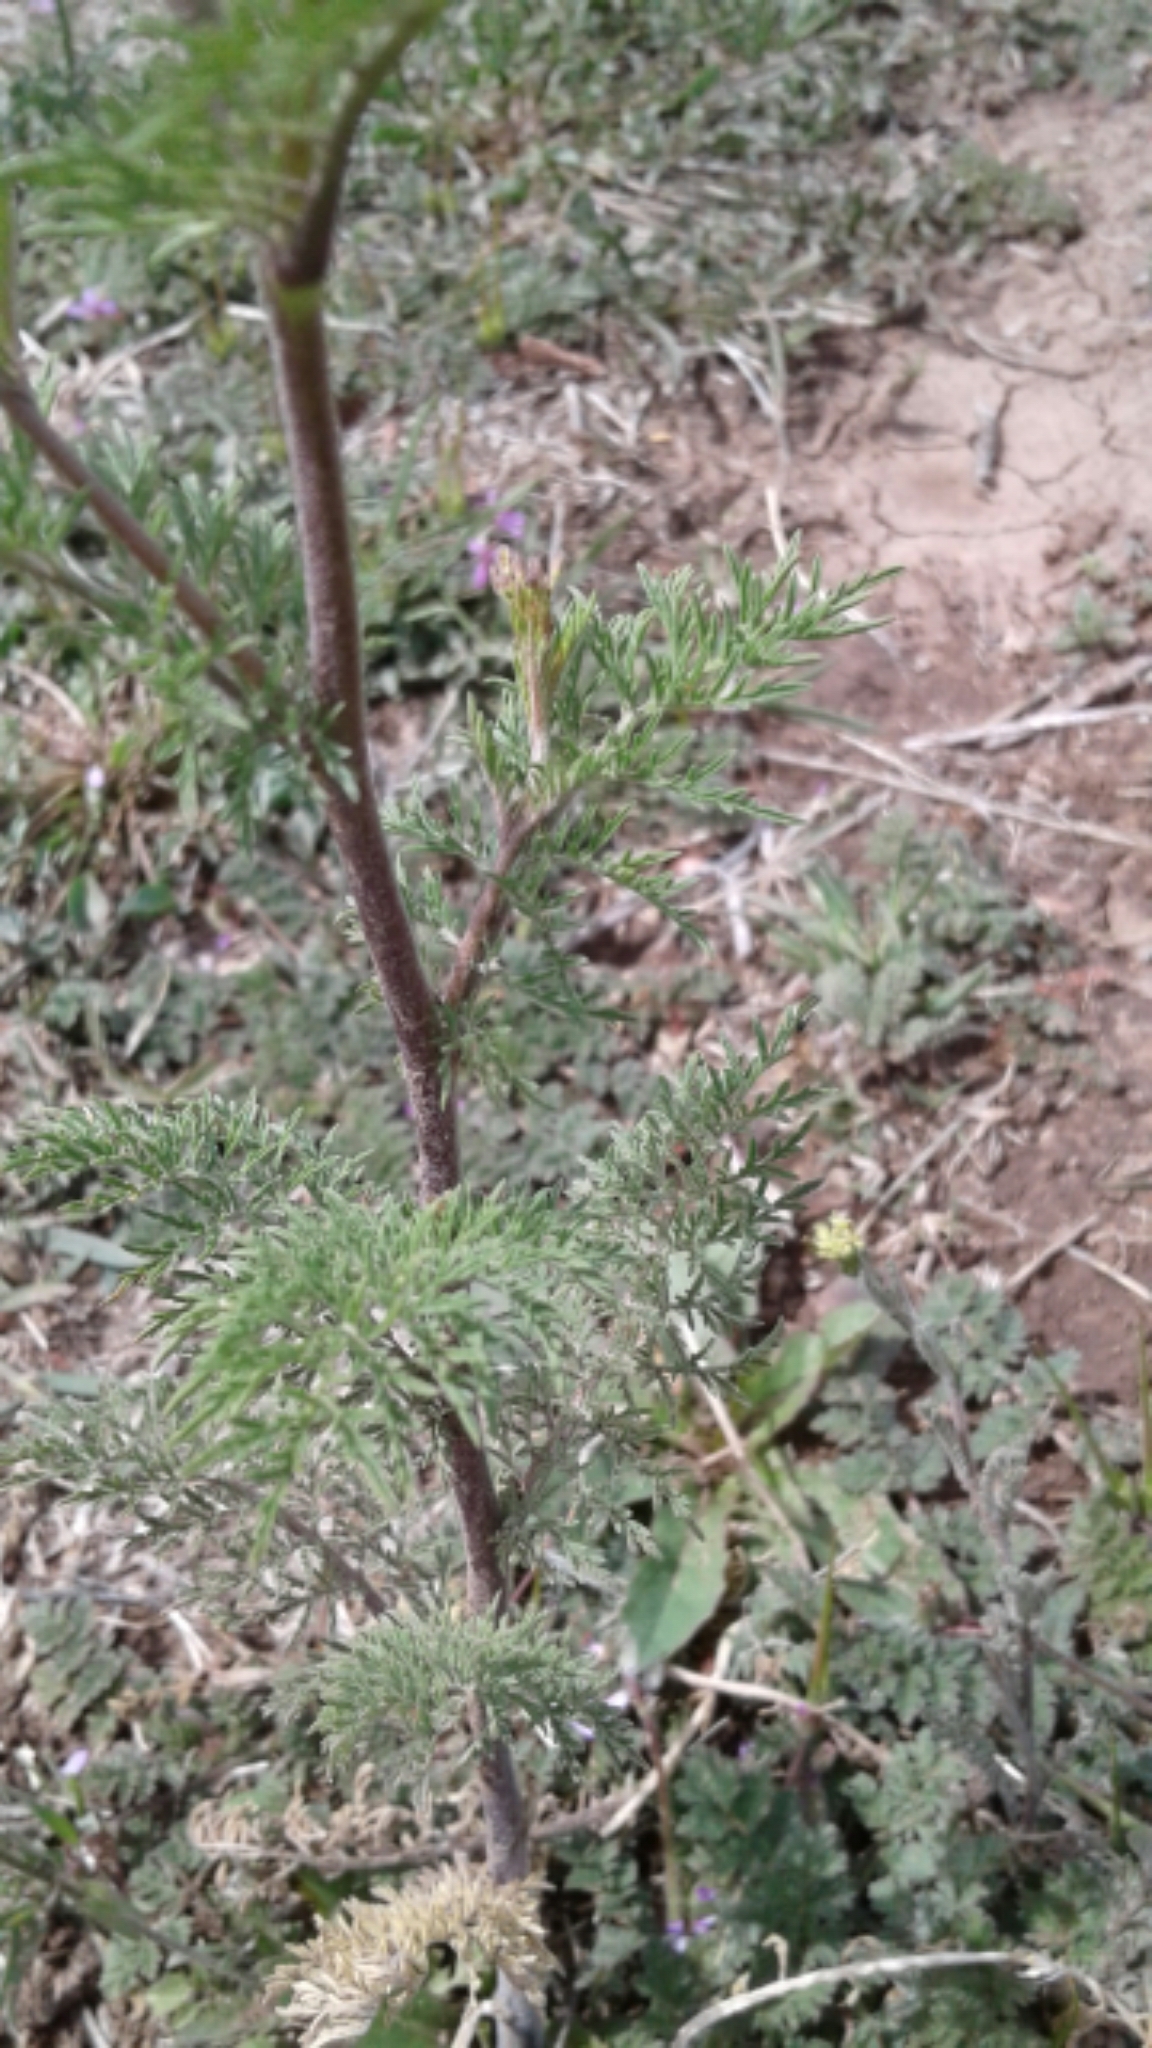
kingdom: Plantae
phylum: Tracheophyta
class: Magnoliopsida
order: Brassicales
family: Brassicaceae
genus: Descurainia
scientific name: Descurainia sophia
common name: Flixweed
